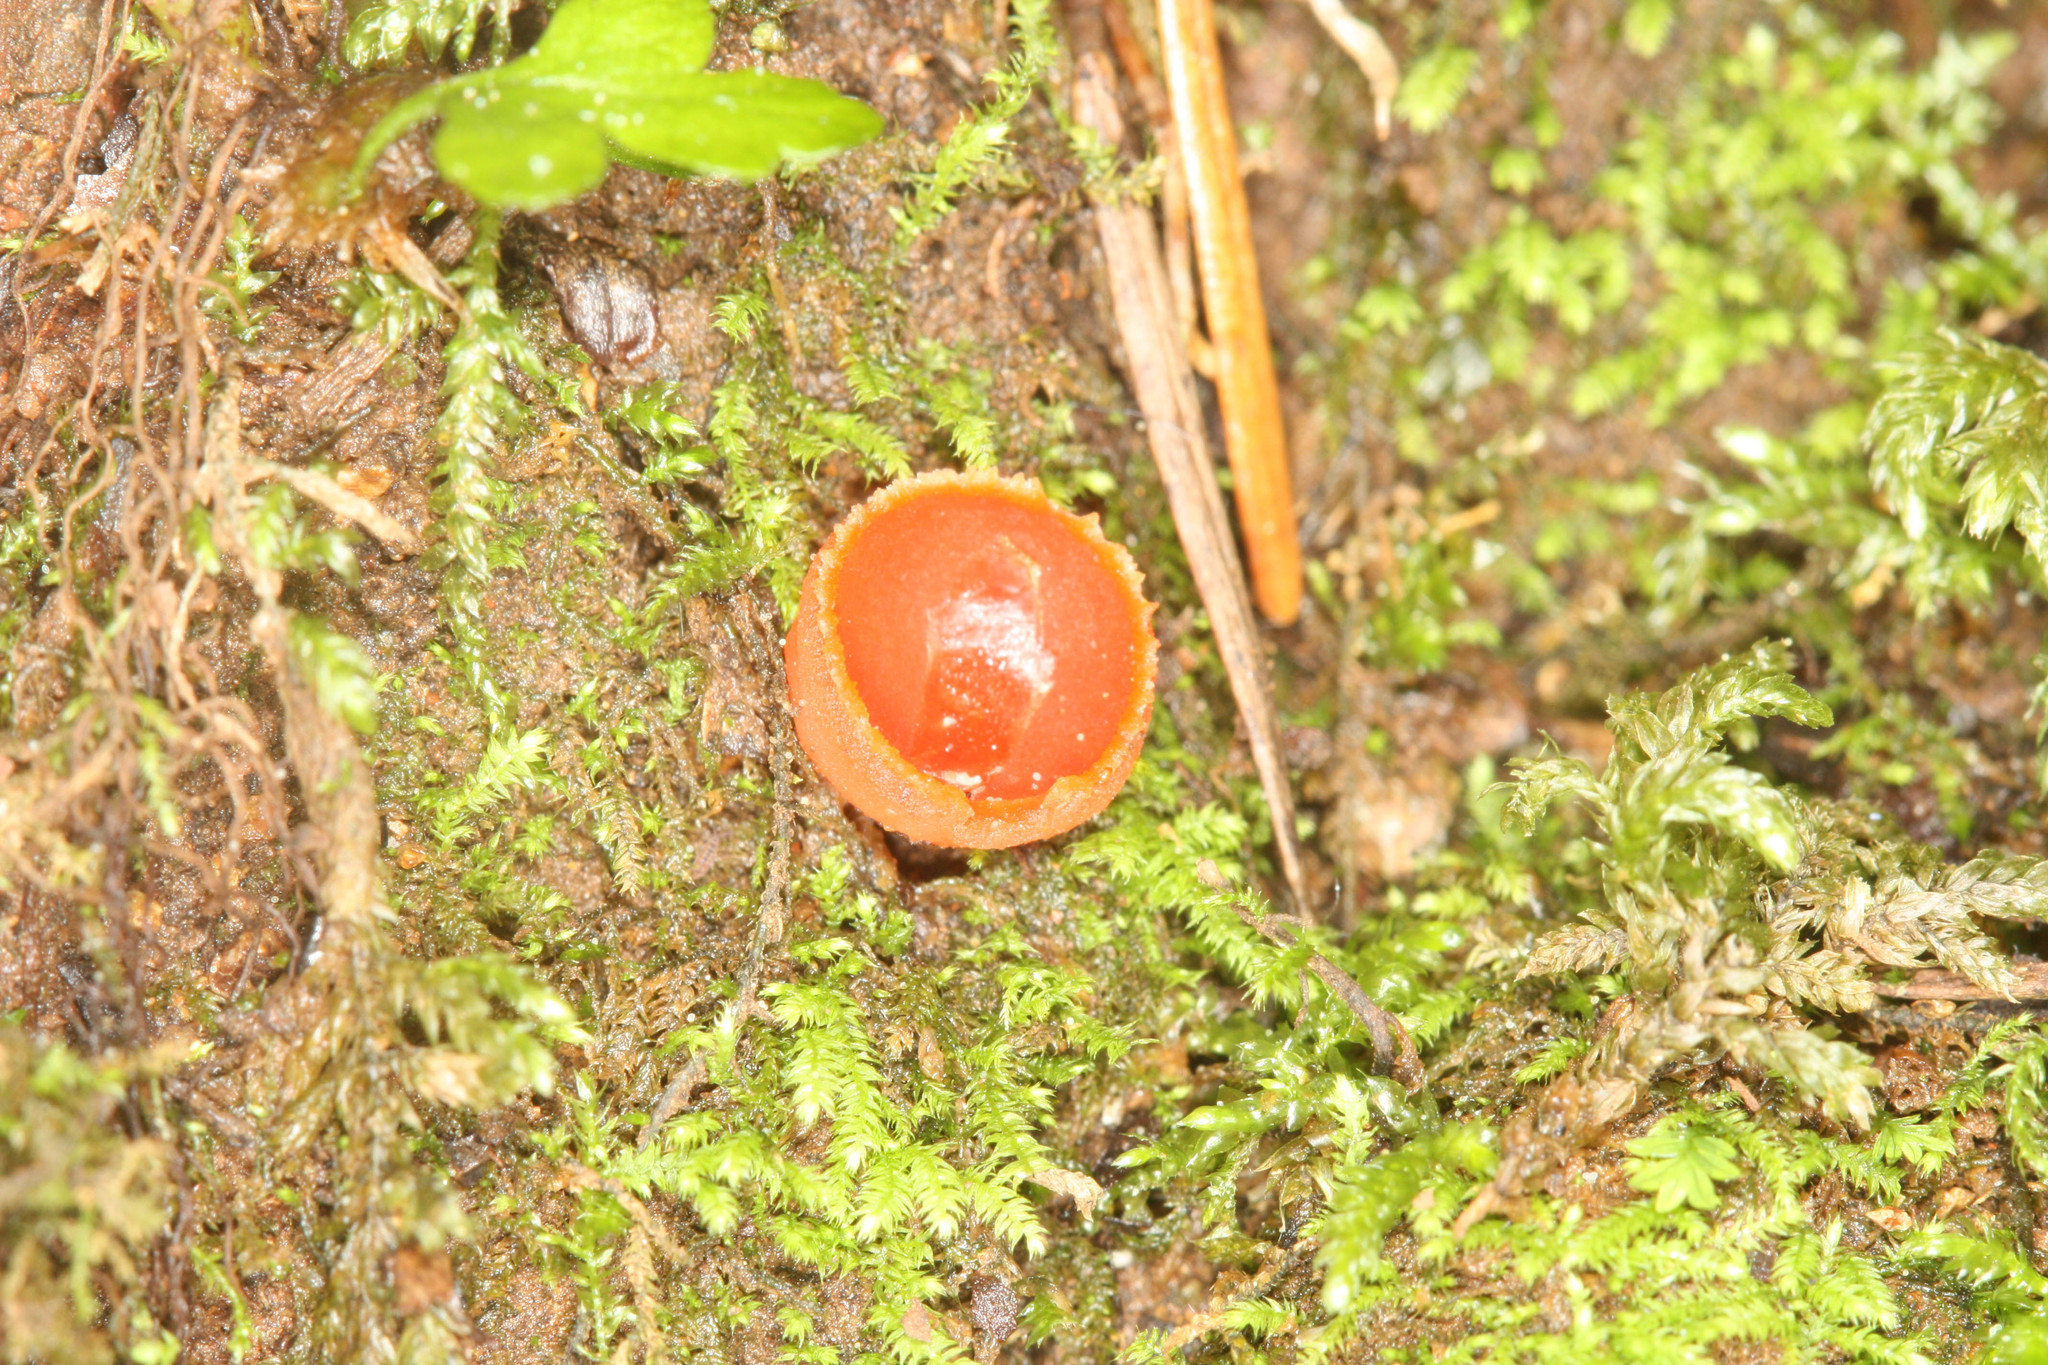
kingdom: Fungi
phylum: Ascomycota
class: Pezizomycetes
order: Pezizales
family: Sarcoscyphaceae
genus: Sarcoscypha
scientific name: Sarcoscypha coccinea
